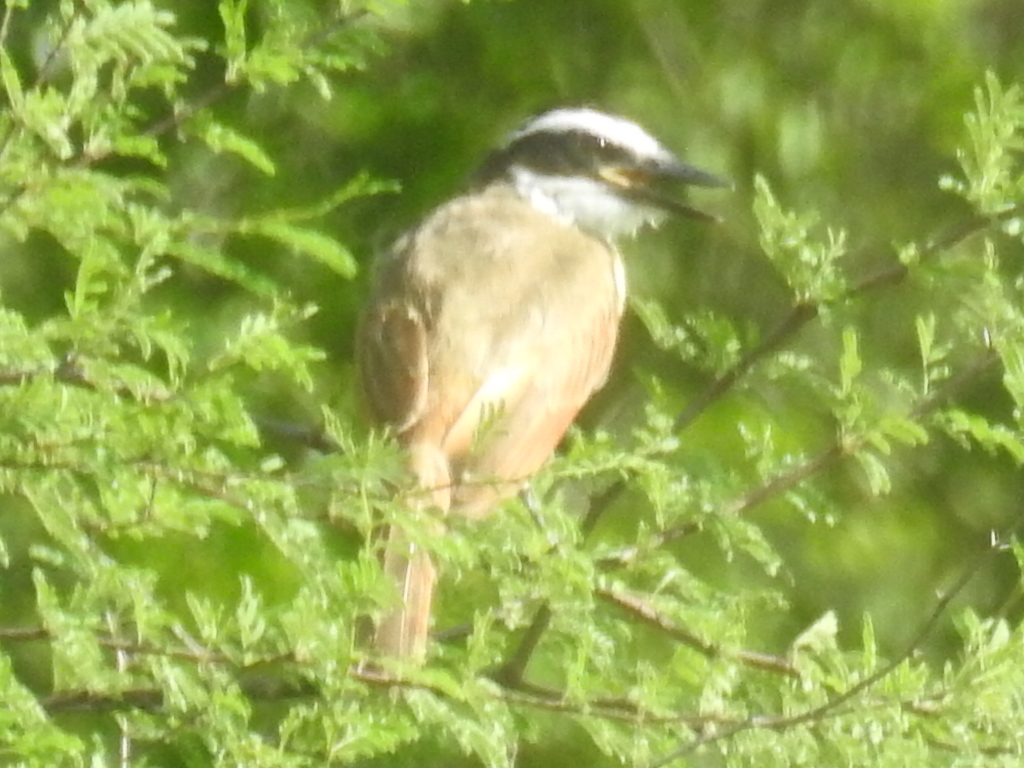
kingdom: Animalia
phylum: Chordata
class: Aves
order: Passeriformes
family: Tyrannidae
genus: Pitangus
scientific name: Pitangus sulphuratus
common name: Great kiskadee
